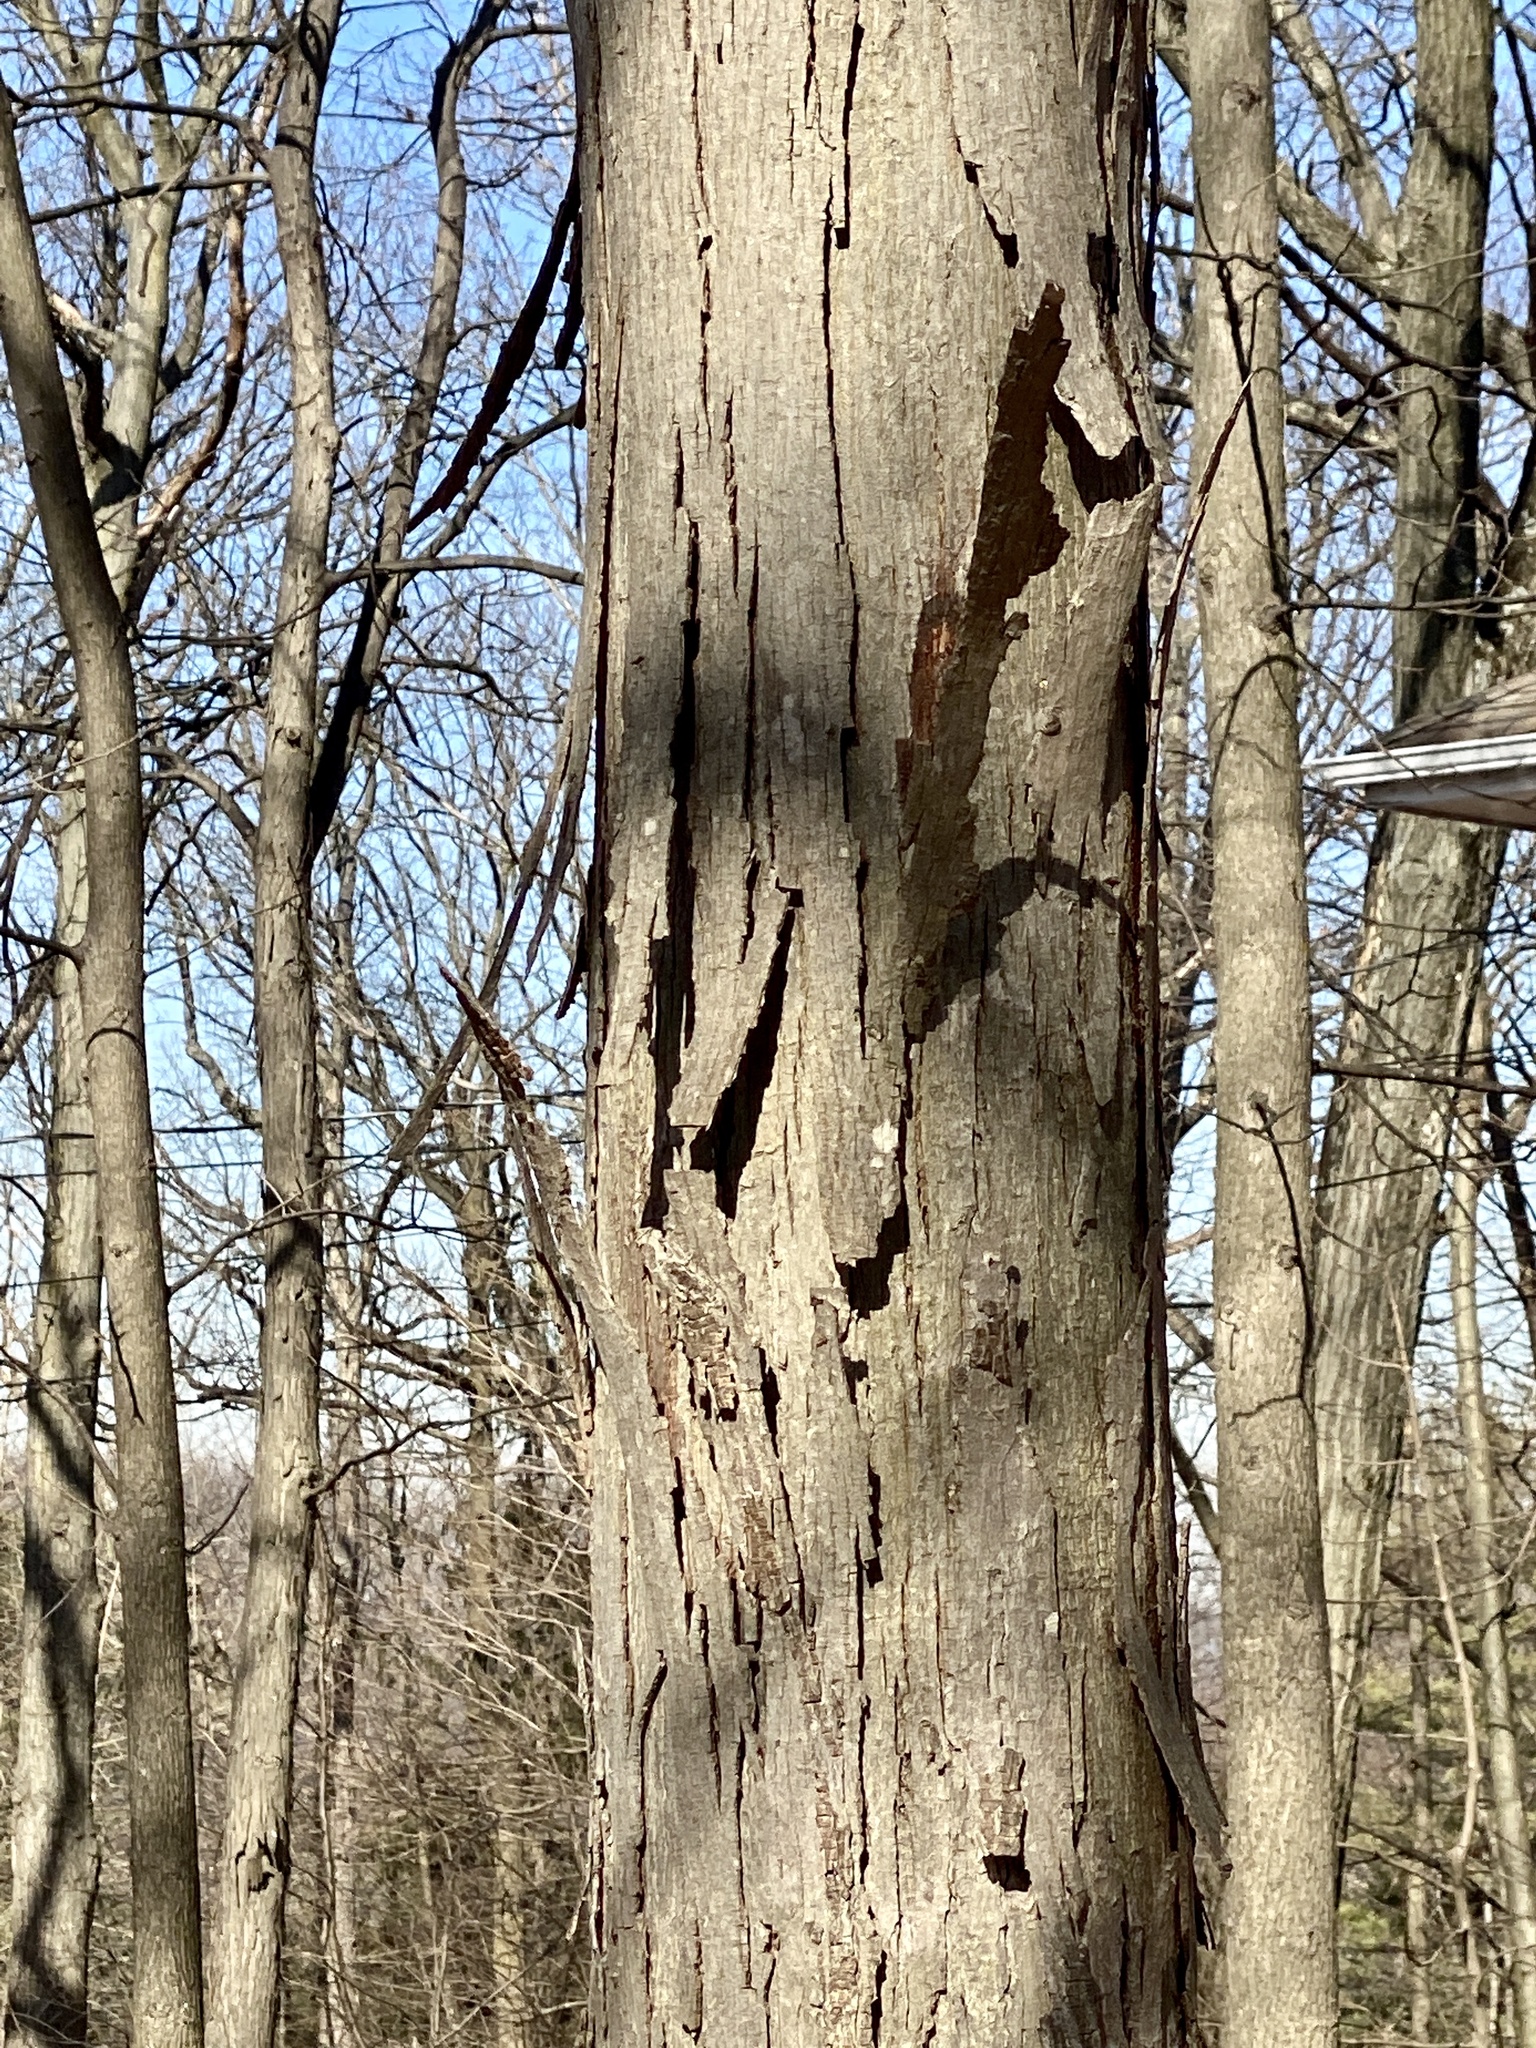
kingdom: Plantae
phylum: Tracheophyta
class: Magnoliopsida
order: Fagales
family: Juglandaceae
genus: Carya
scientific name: Carya ovata
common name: Shagbark hickory
